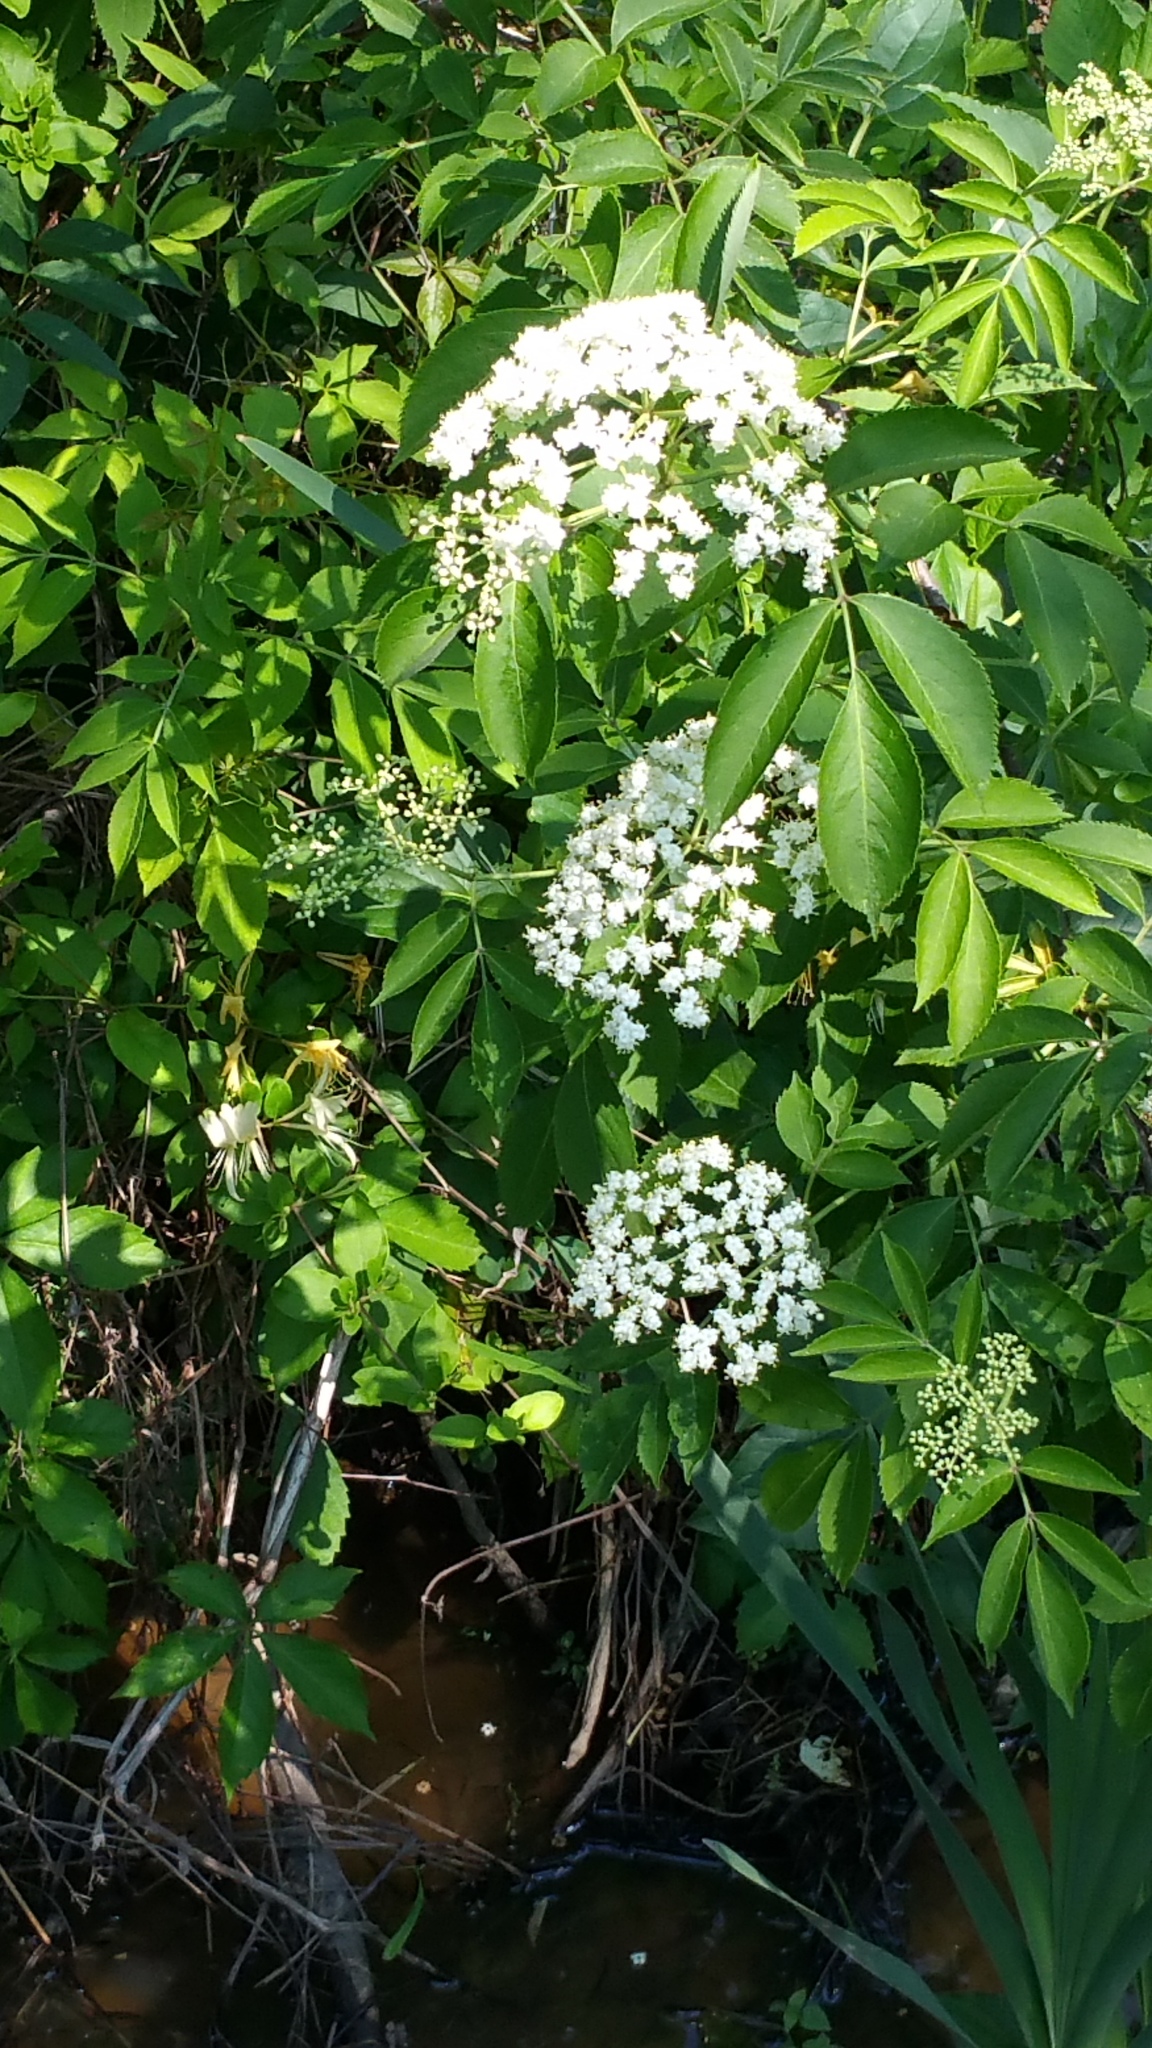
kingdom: Plantae
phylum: Tracheophyta
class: Magnoliopsida
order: Dipsacales
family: Viburnaceae
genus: Sambucus
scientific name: Sambucus canadensis
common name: American elder
